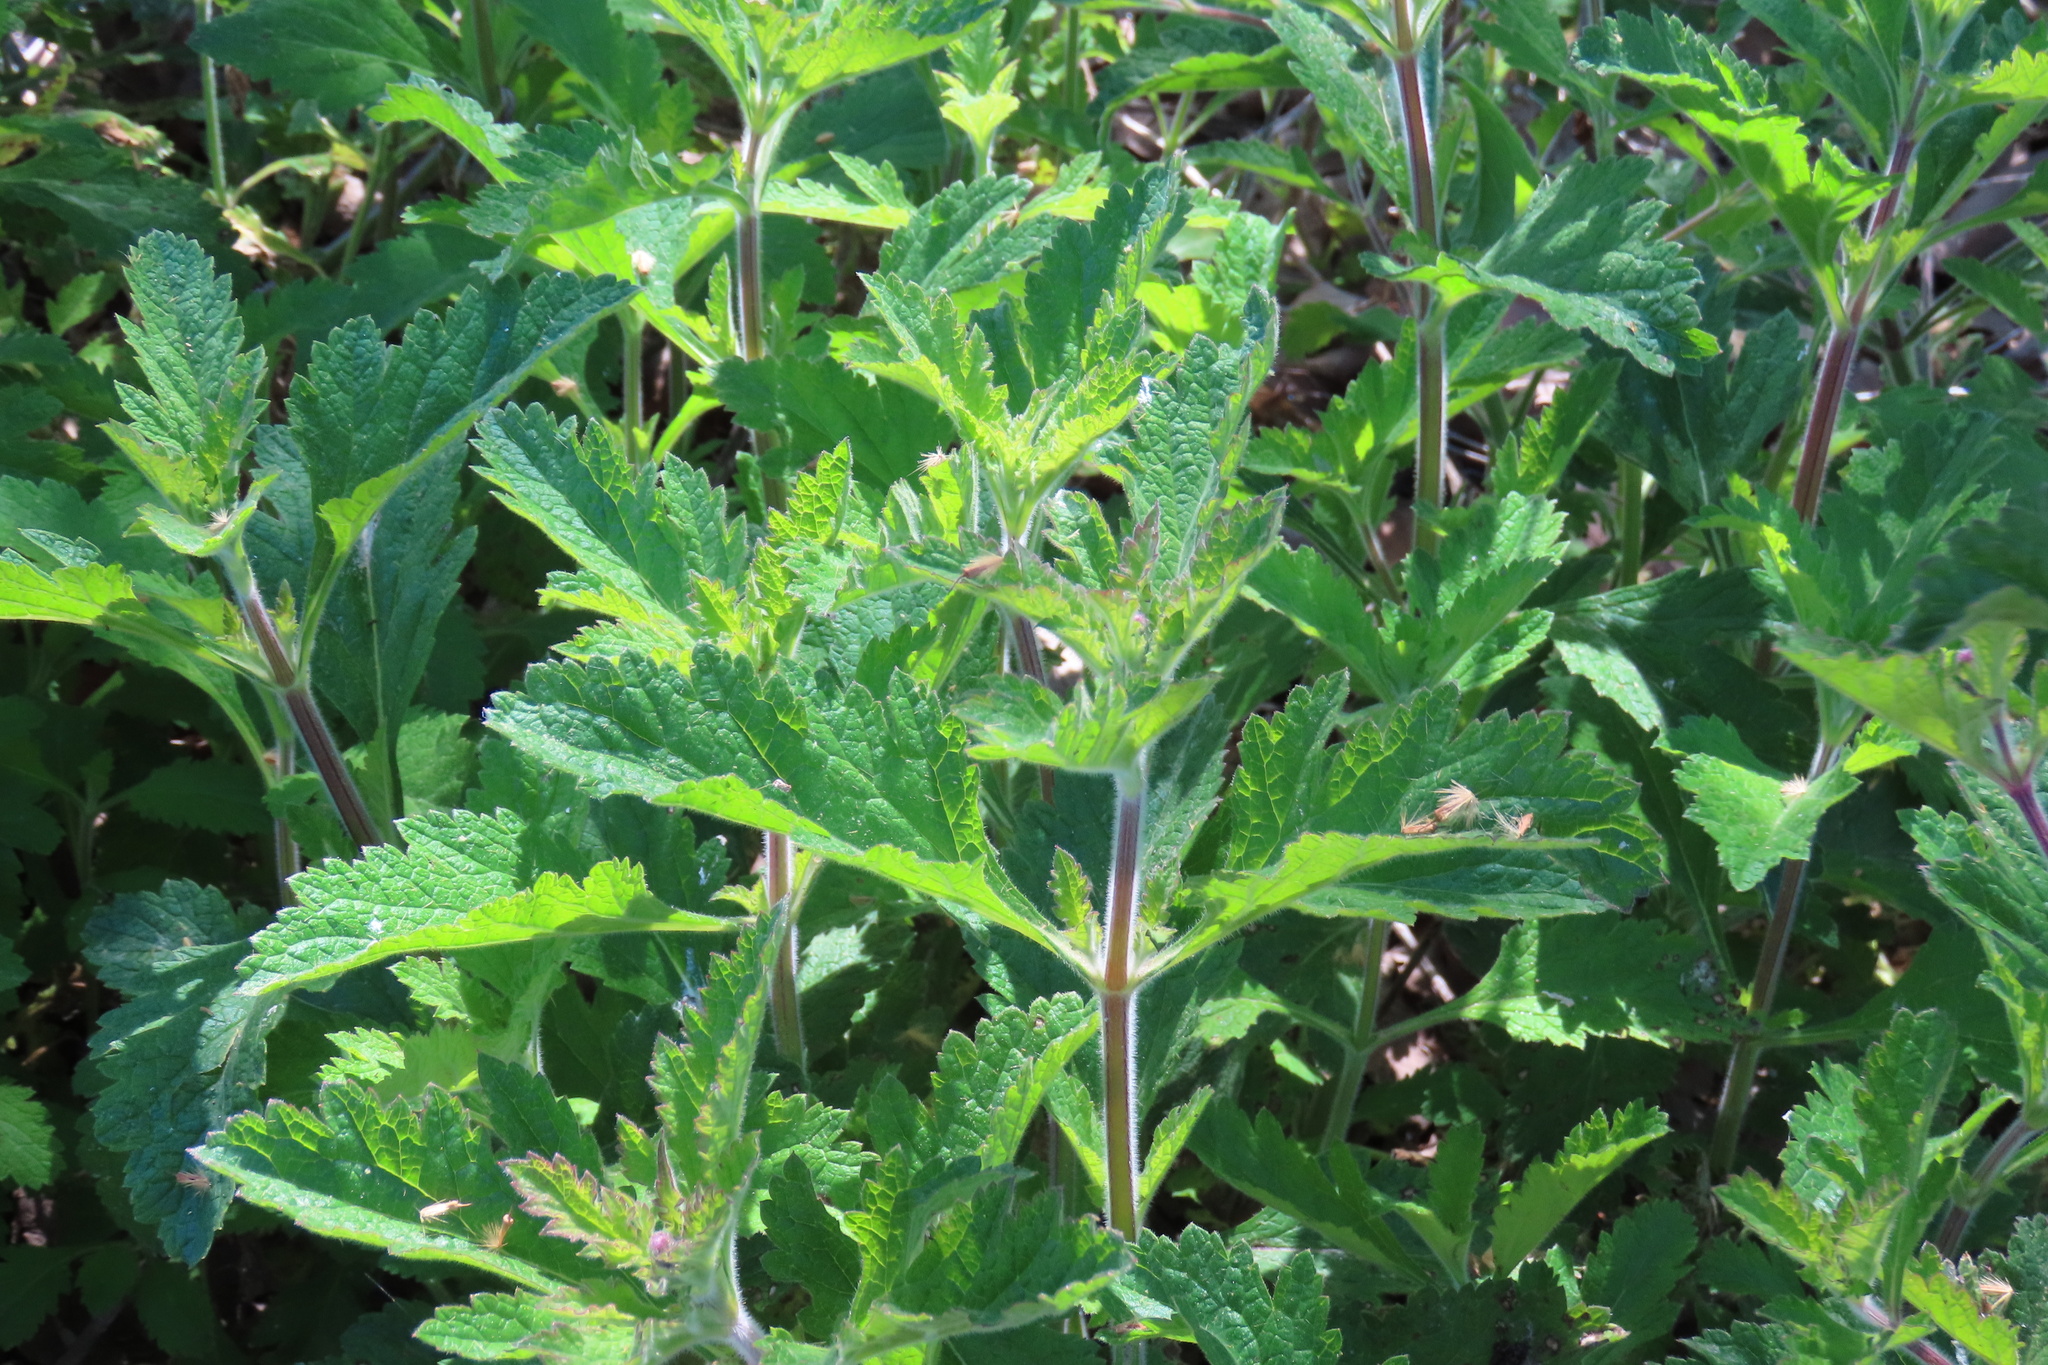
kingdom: Plantae
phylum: Tracheophyta
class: Magnoliopsida
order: Lamiales
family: Verbenaceae
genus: Verbena
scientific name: Verbena lasiostachys
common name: Vervain
